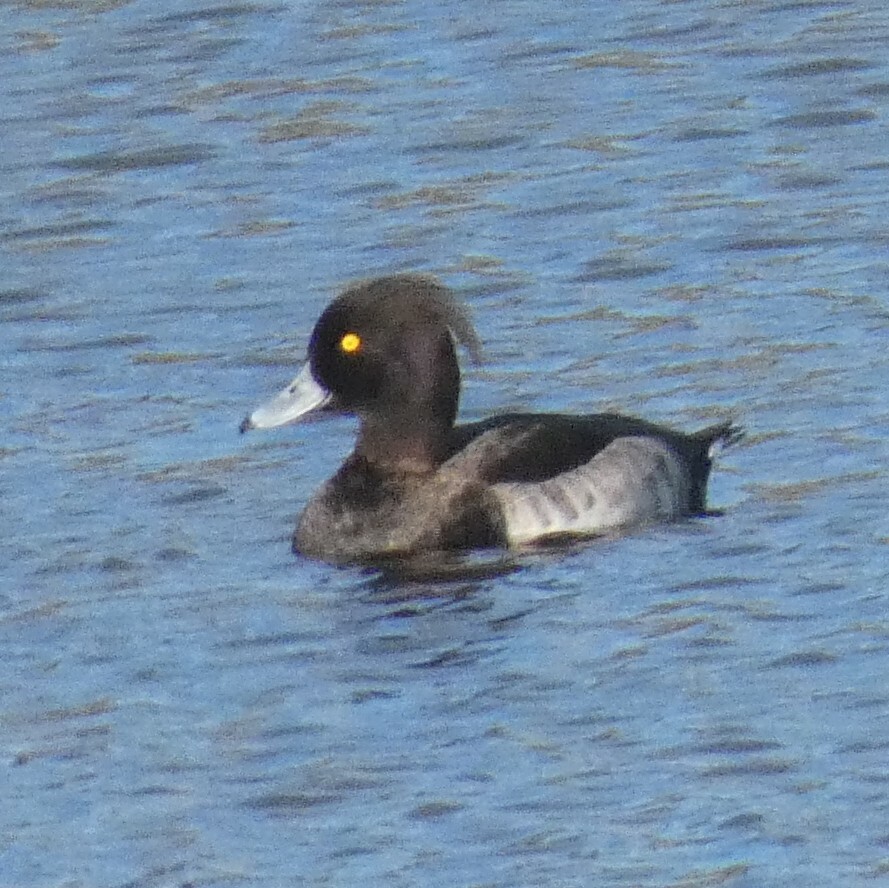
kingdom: Animalia
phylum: Chordata
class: Aves
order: Anseriformes
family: Anatidae
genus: Aythya
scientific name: Aythya fuligula
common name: Tufted duck
